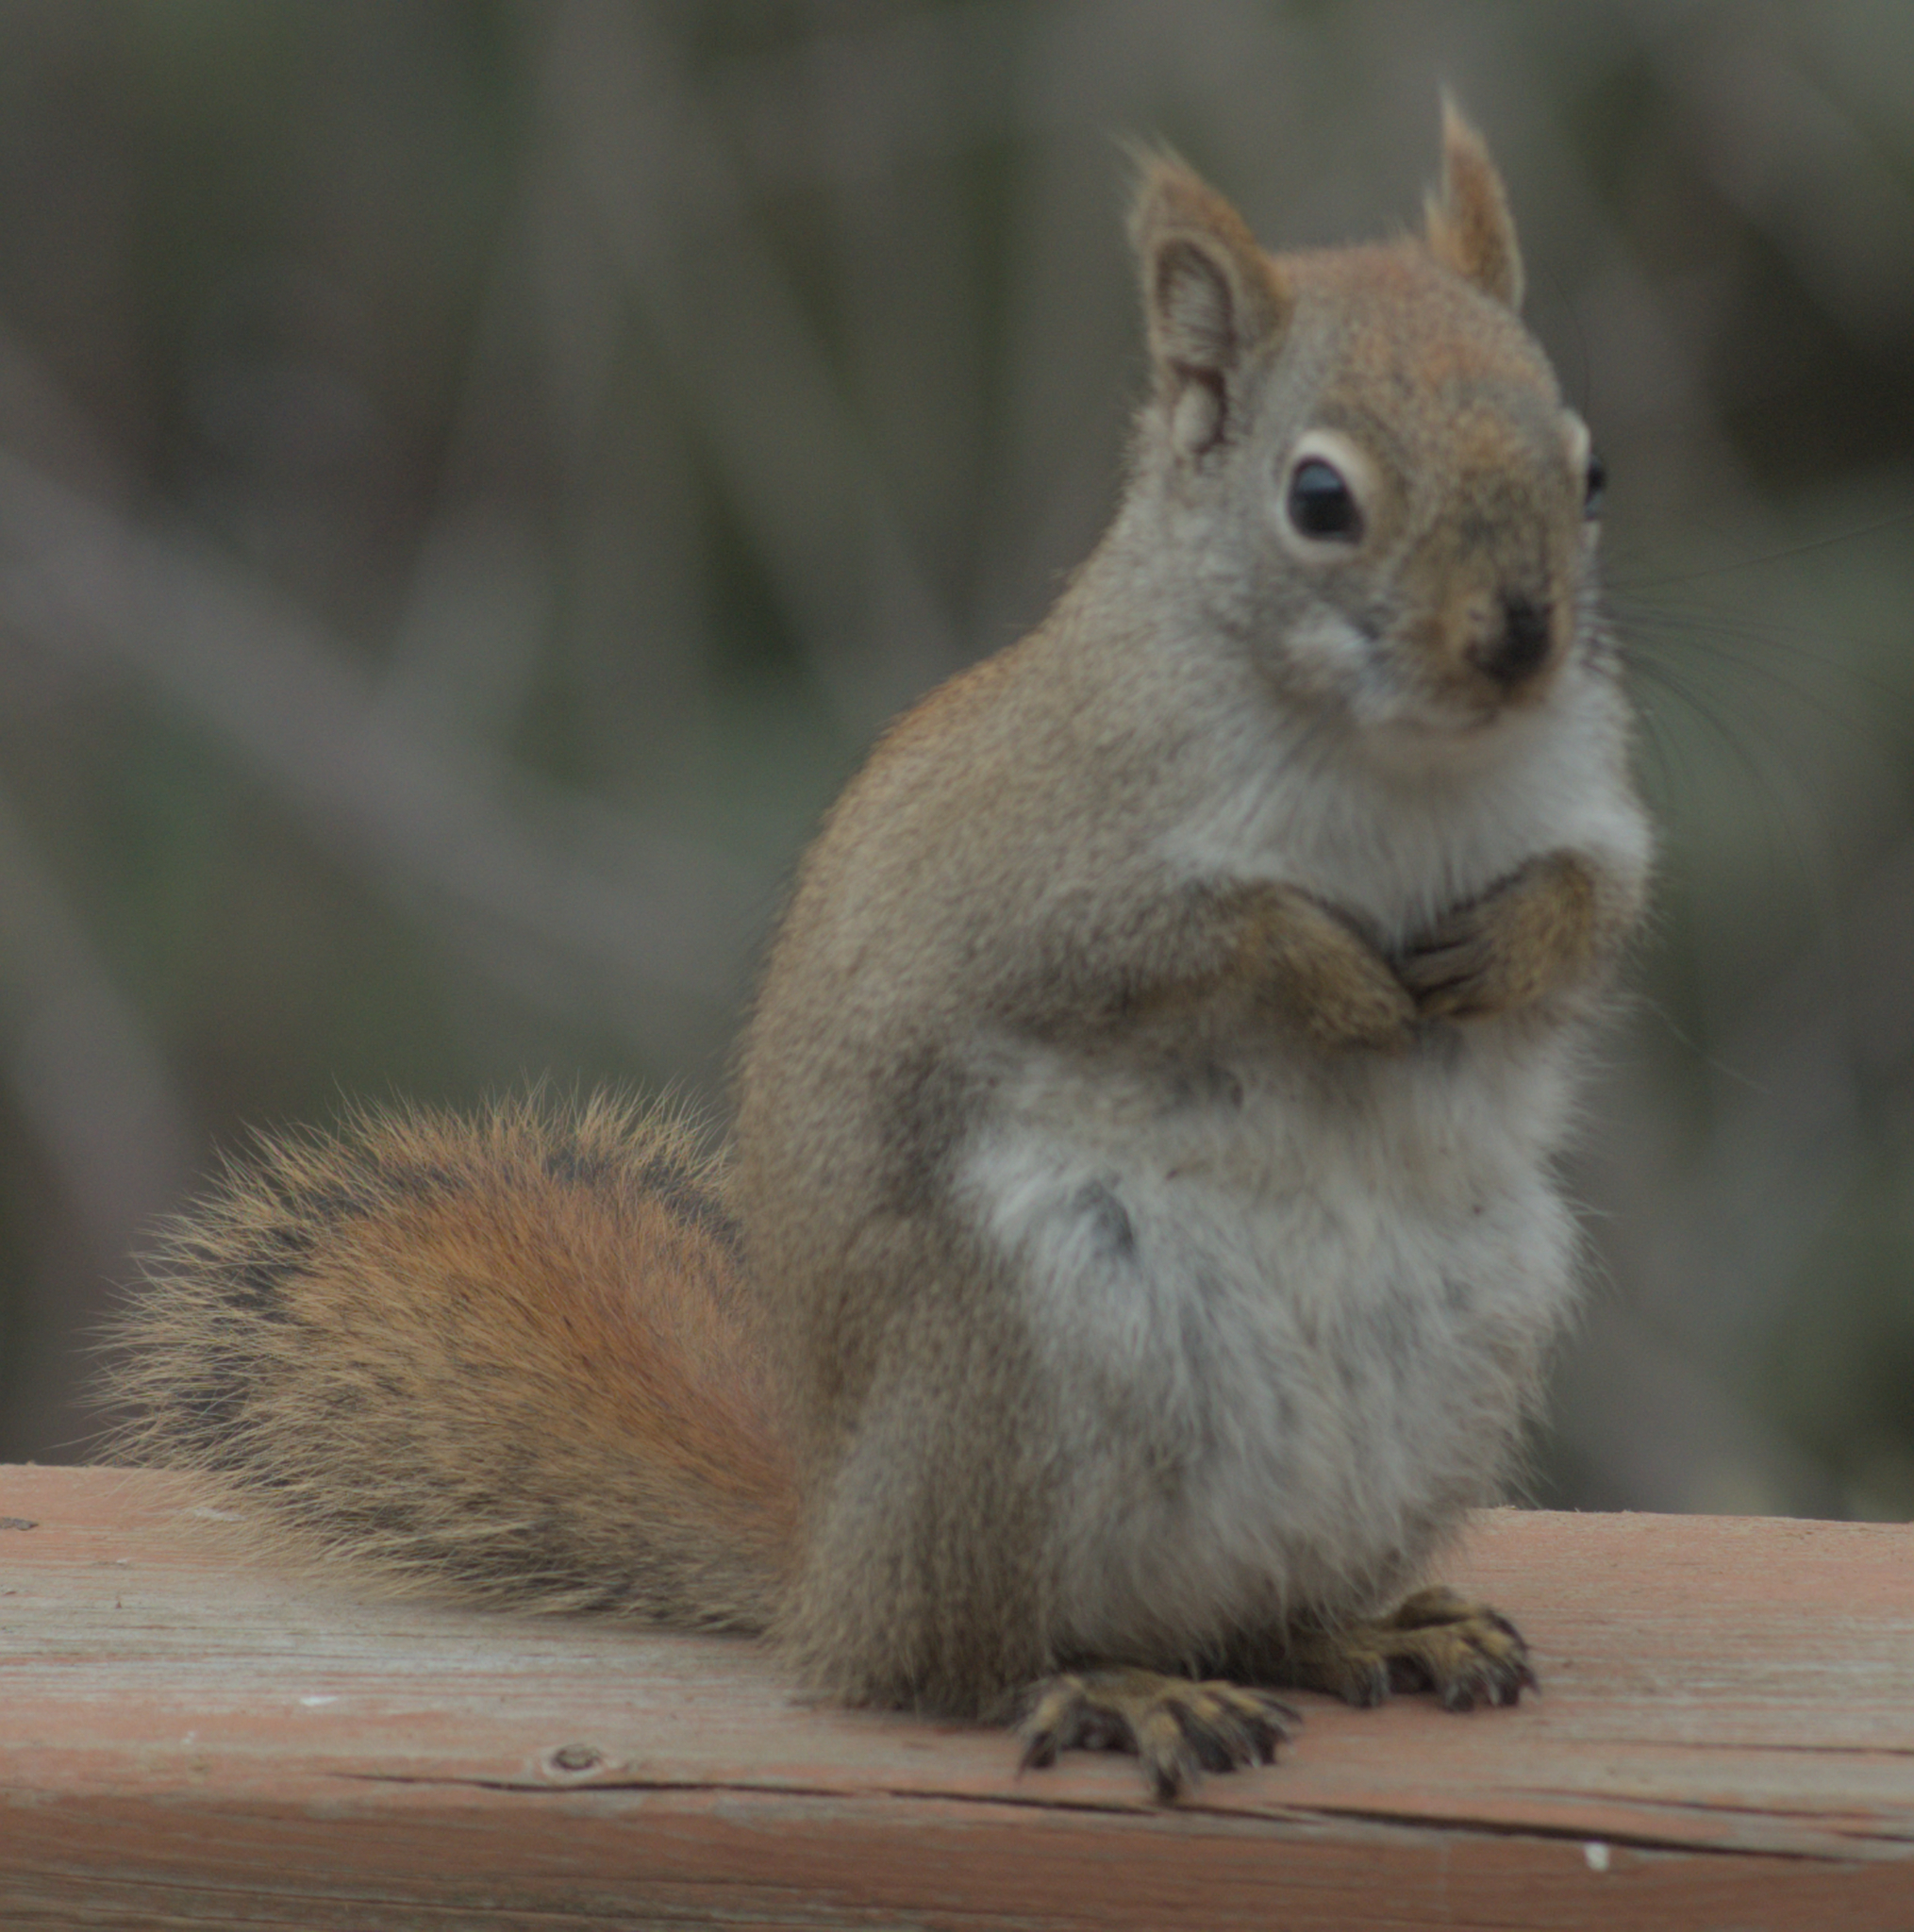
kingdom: Animalia
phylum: Chordata
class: Mammalia
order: Rodentia
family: Sciuridae
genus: Tamiasciurus
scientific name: Tamiasciurus hudsonicus
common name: Red squirrel
